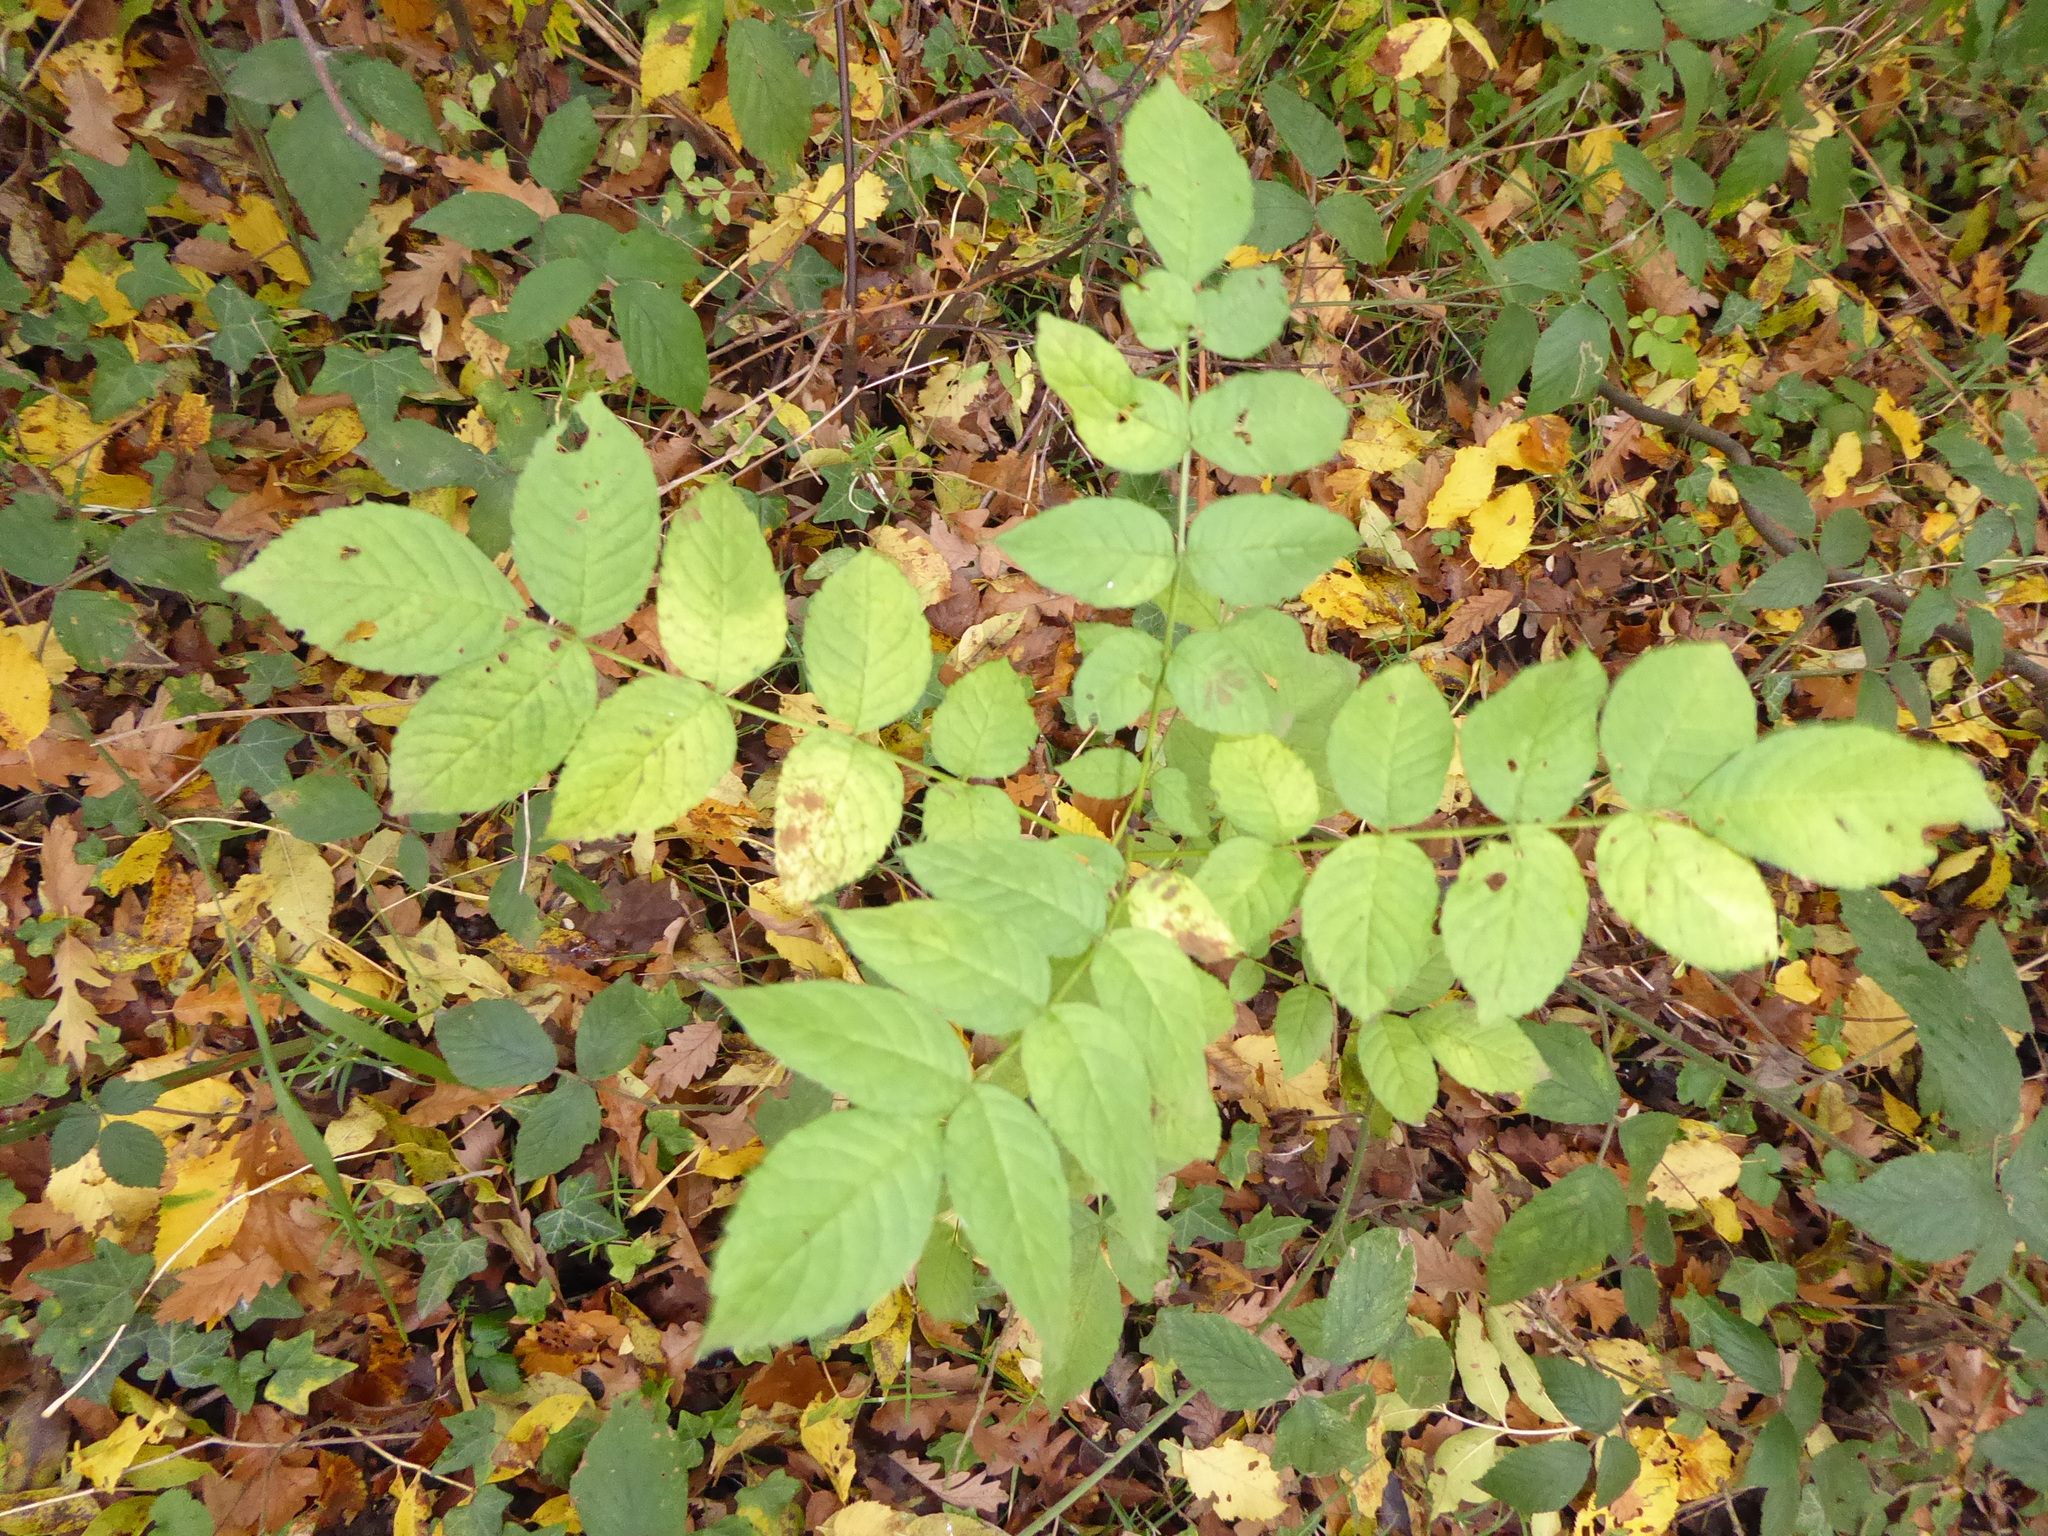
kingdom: Plantae
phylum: Tracheophyta
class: Magnoliopsida
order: Lamiales
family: Oleaceae
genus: Fraxinus
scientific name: Fraxinus excelsior
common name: European ash
